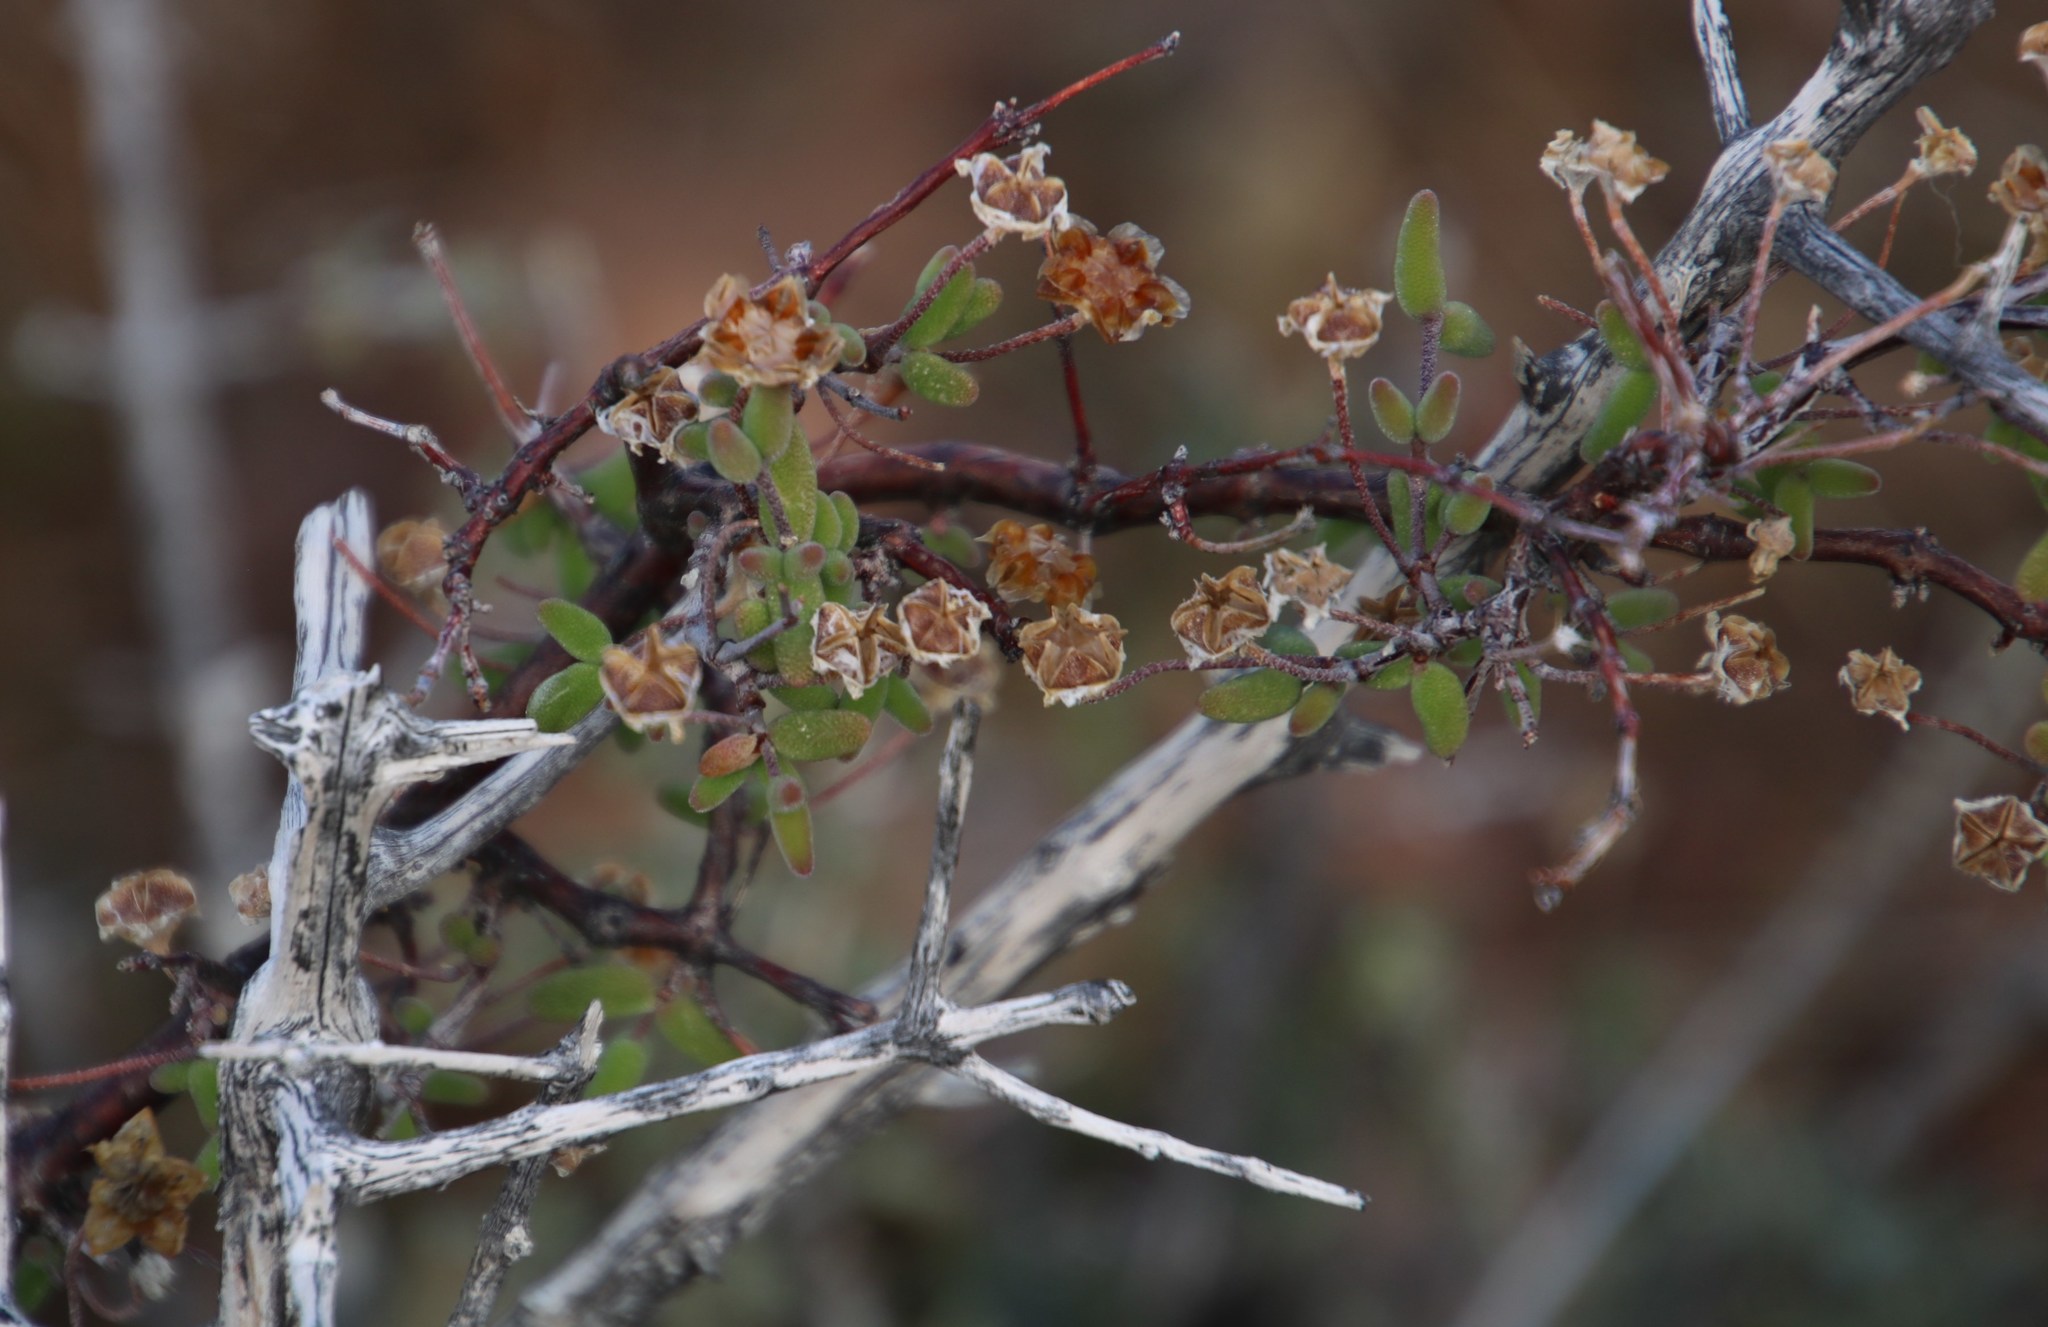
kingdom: Plantae
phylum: Tracheophyta
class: Magnoliopsida
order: Caryophyllales
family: Aizoaceae
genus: Drosanthemum
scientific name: Drosanthemum karrooense
